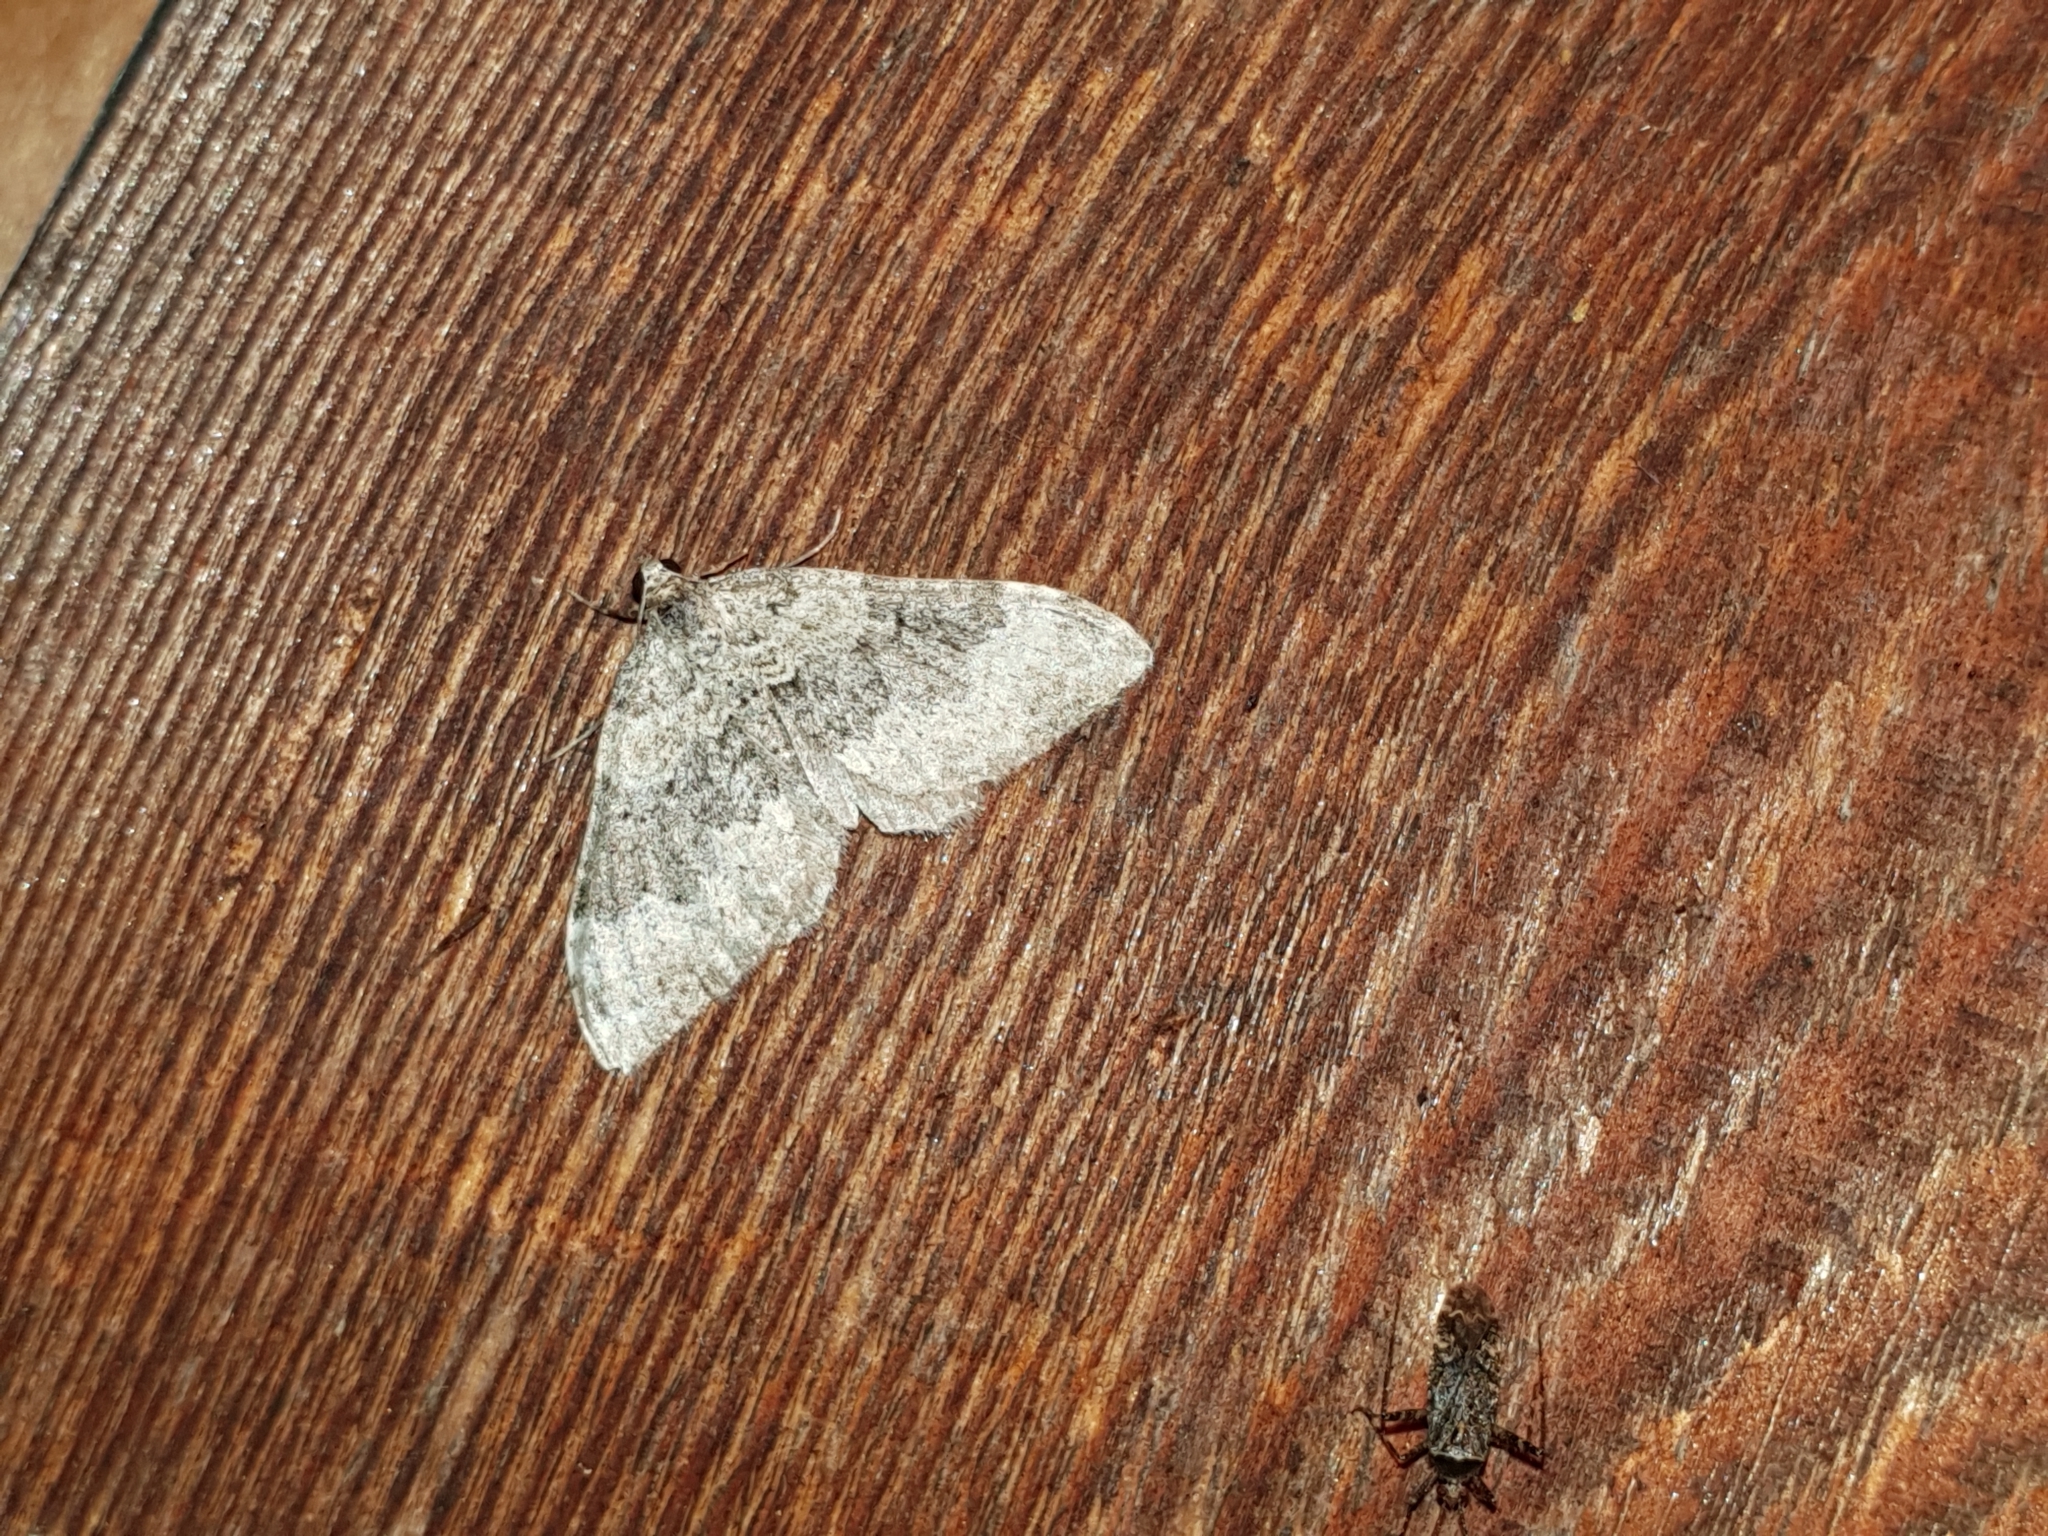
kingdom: Animalia
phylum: Arthropoda
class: Insecta
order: Lepidoptera
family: Geometridae
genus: Epirrhoe
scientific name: Epirrhoe galiata
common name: Galium carpet
